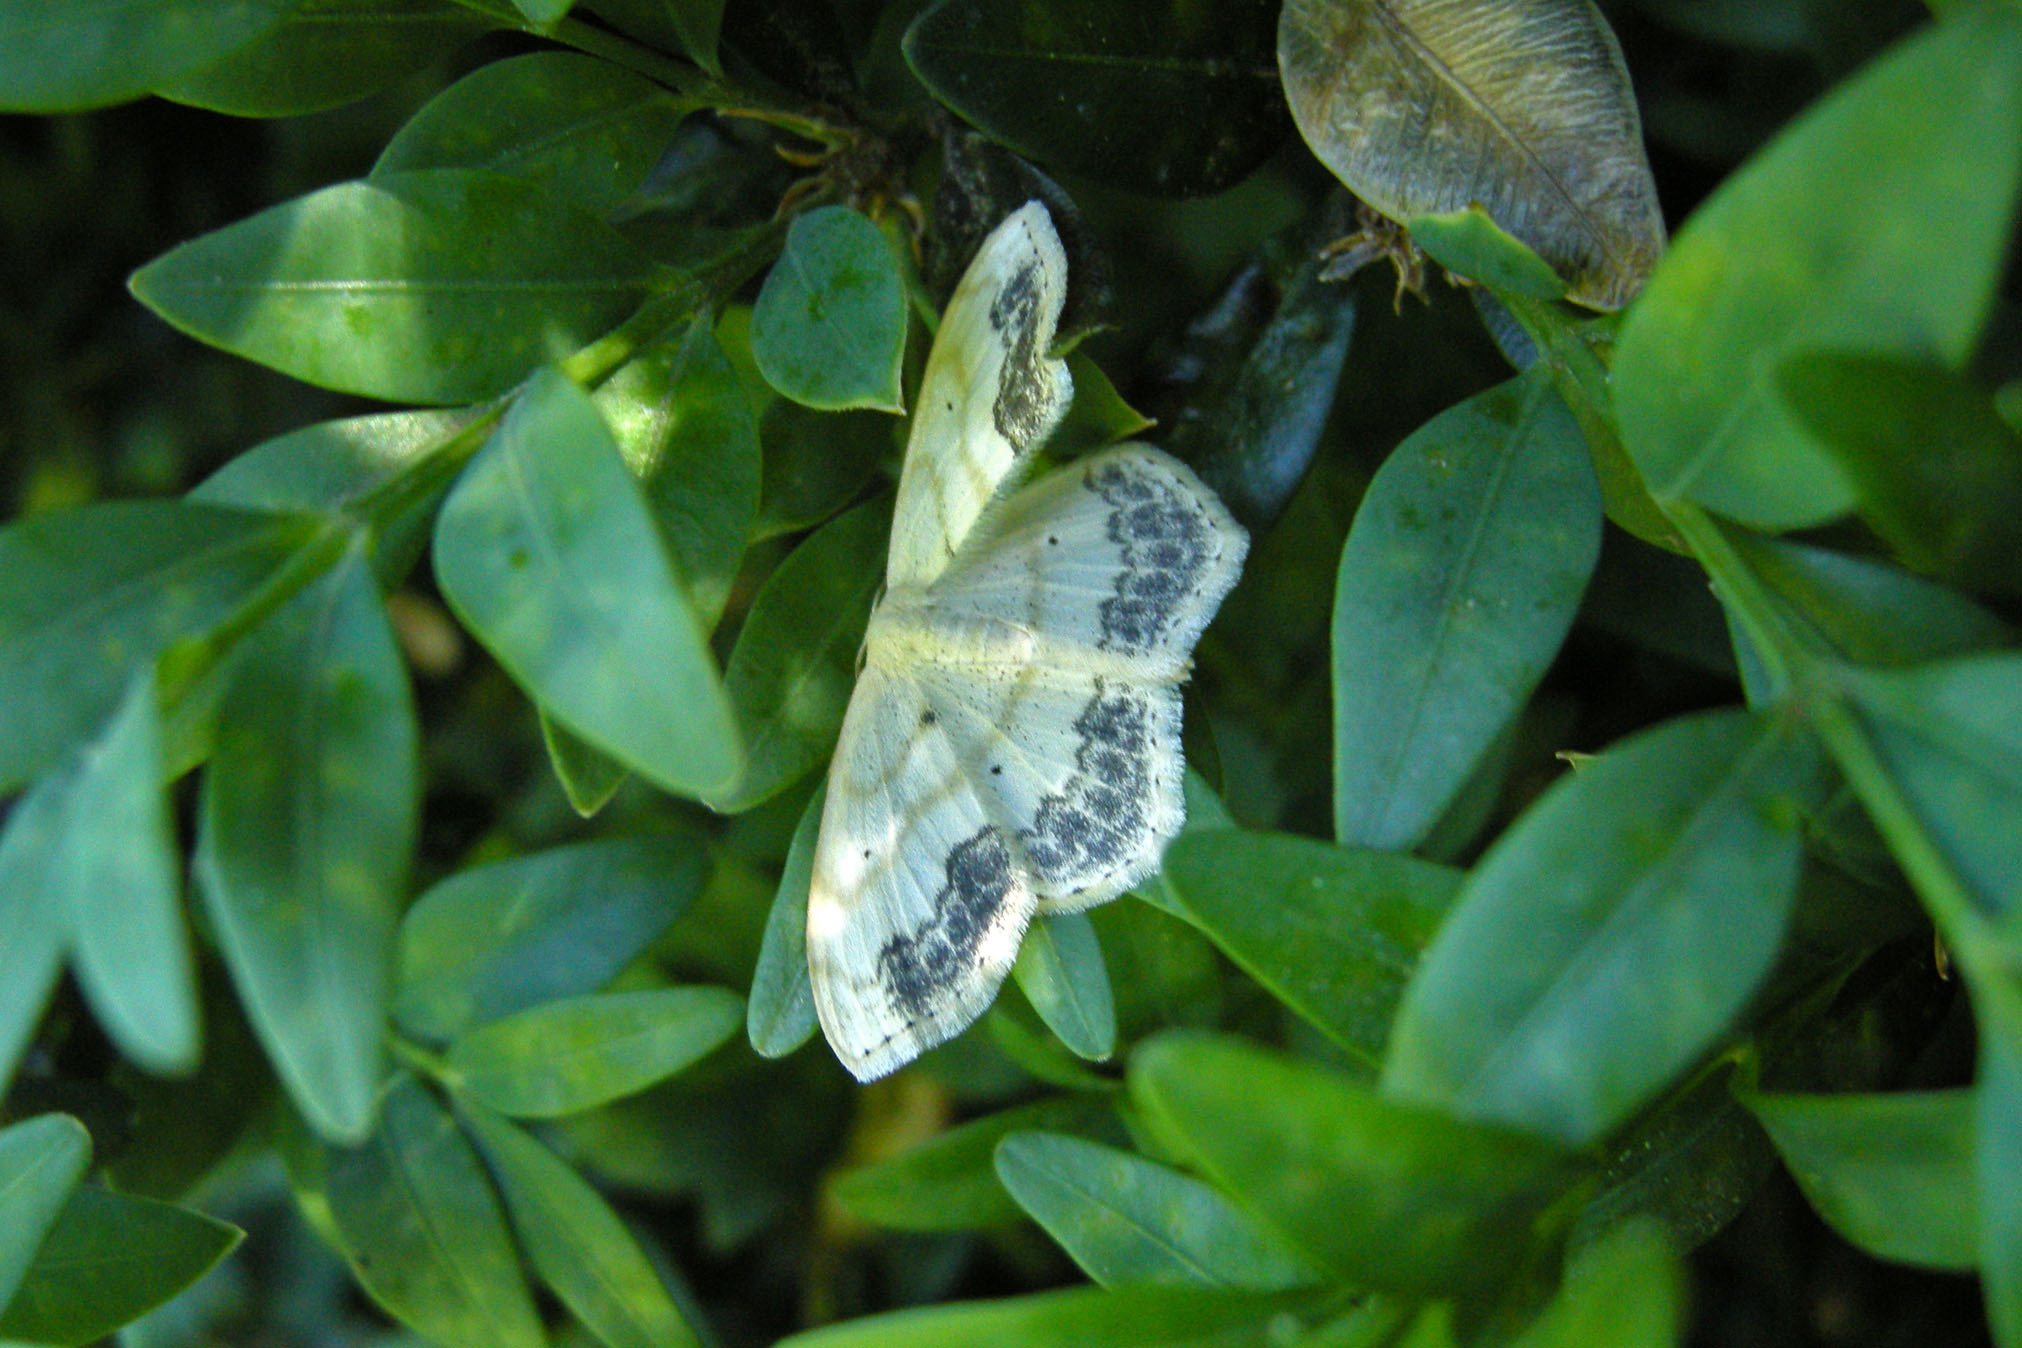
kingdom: Animalia
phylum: Arthropoda
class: Insecta
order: Lepidoptera
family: Geometridae
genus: Scopula
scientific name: Scopula limboundata
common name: Large lace border
